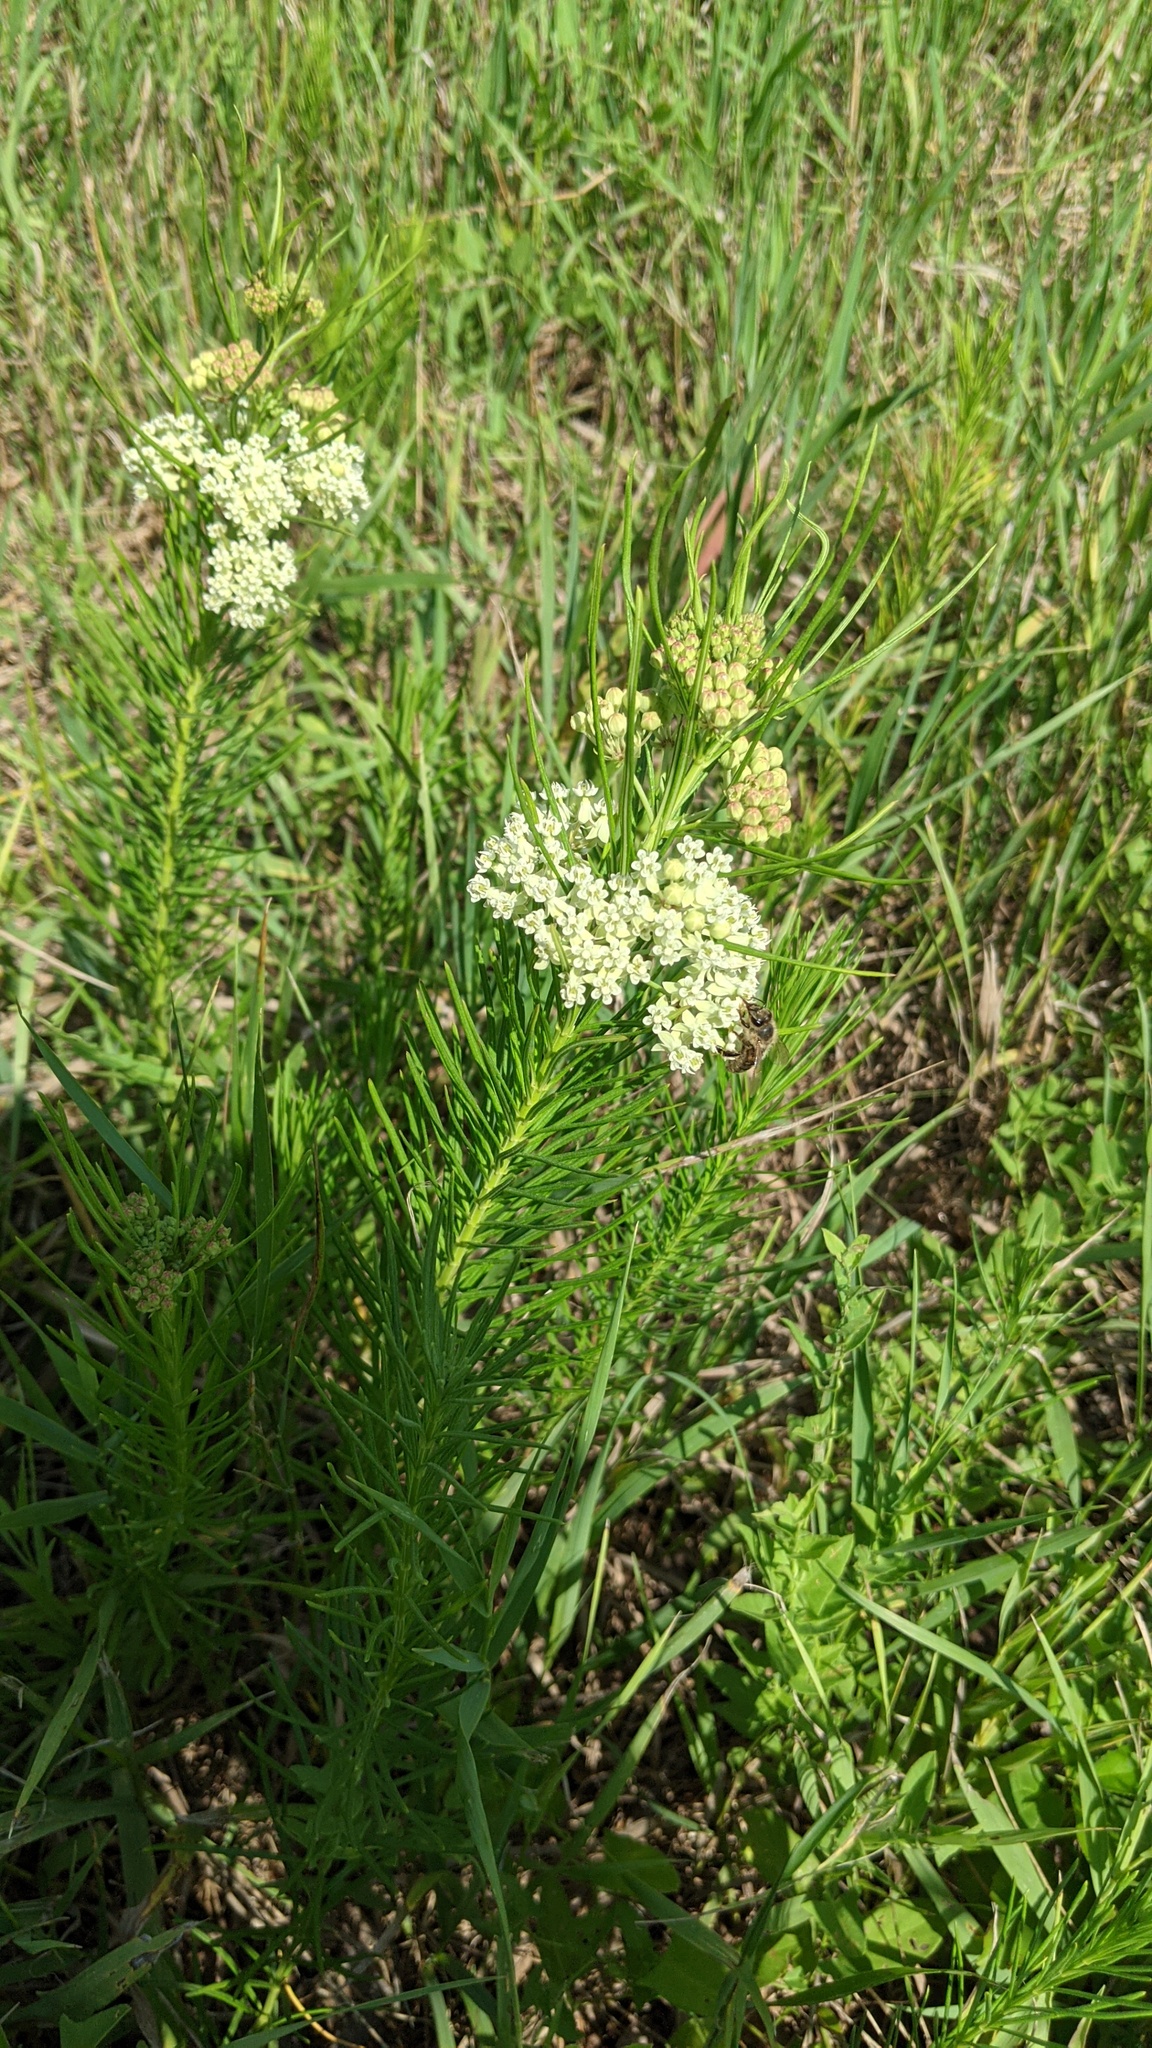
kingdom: Plantae
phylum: Tracheophyta
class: Magnoliopsida
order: Gentianales
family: Apocynaceae
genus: Asclepias
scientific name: Asclepias verticillata
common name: Eastern whorled milkweed
